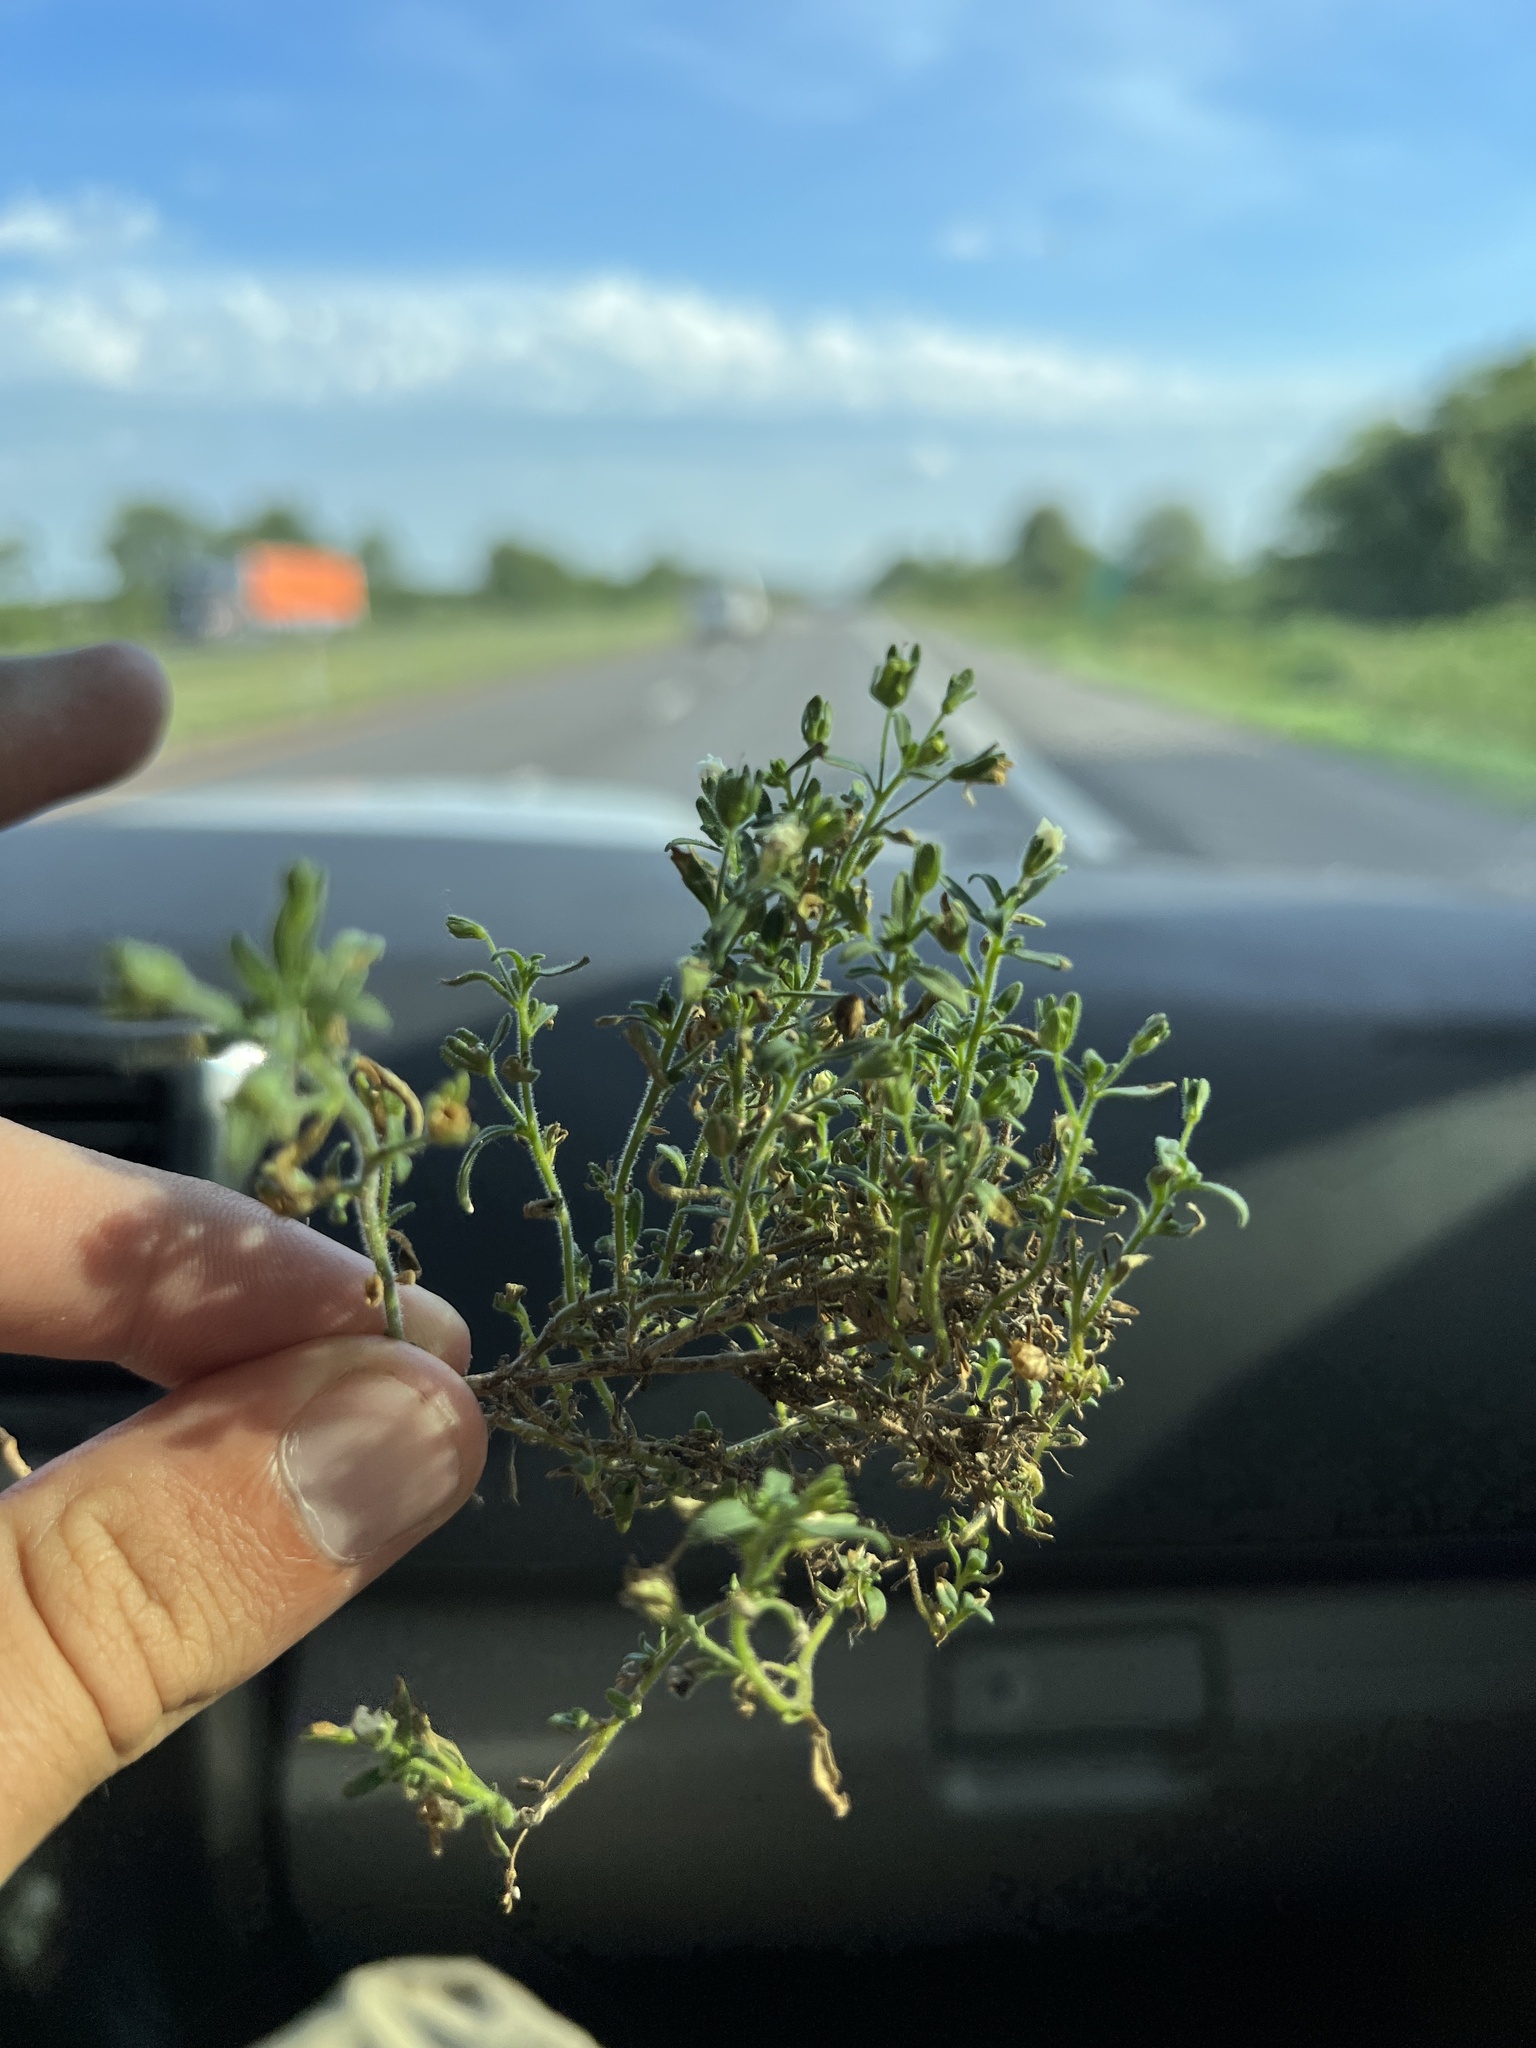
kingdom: Plantae
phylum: Tracheophyta
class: Magnoliopsida
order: Lamiales
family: Plantaginaceae
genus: Chaenorhinum
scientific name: Chaenorhinum minus
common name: Dwarf snapdragon
